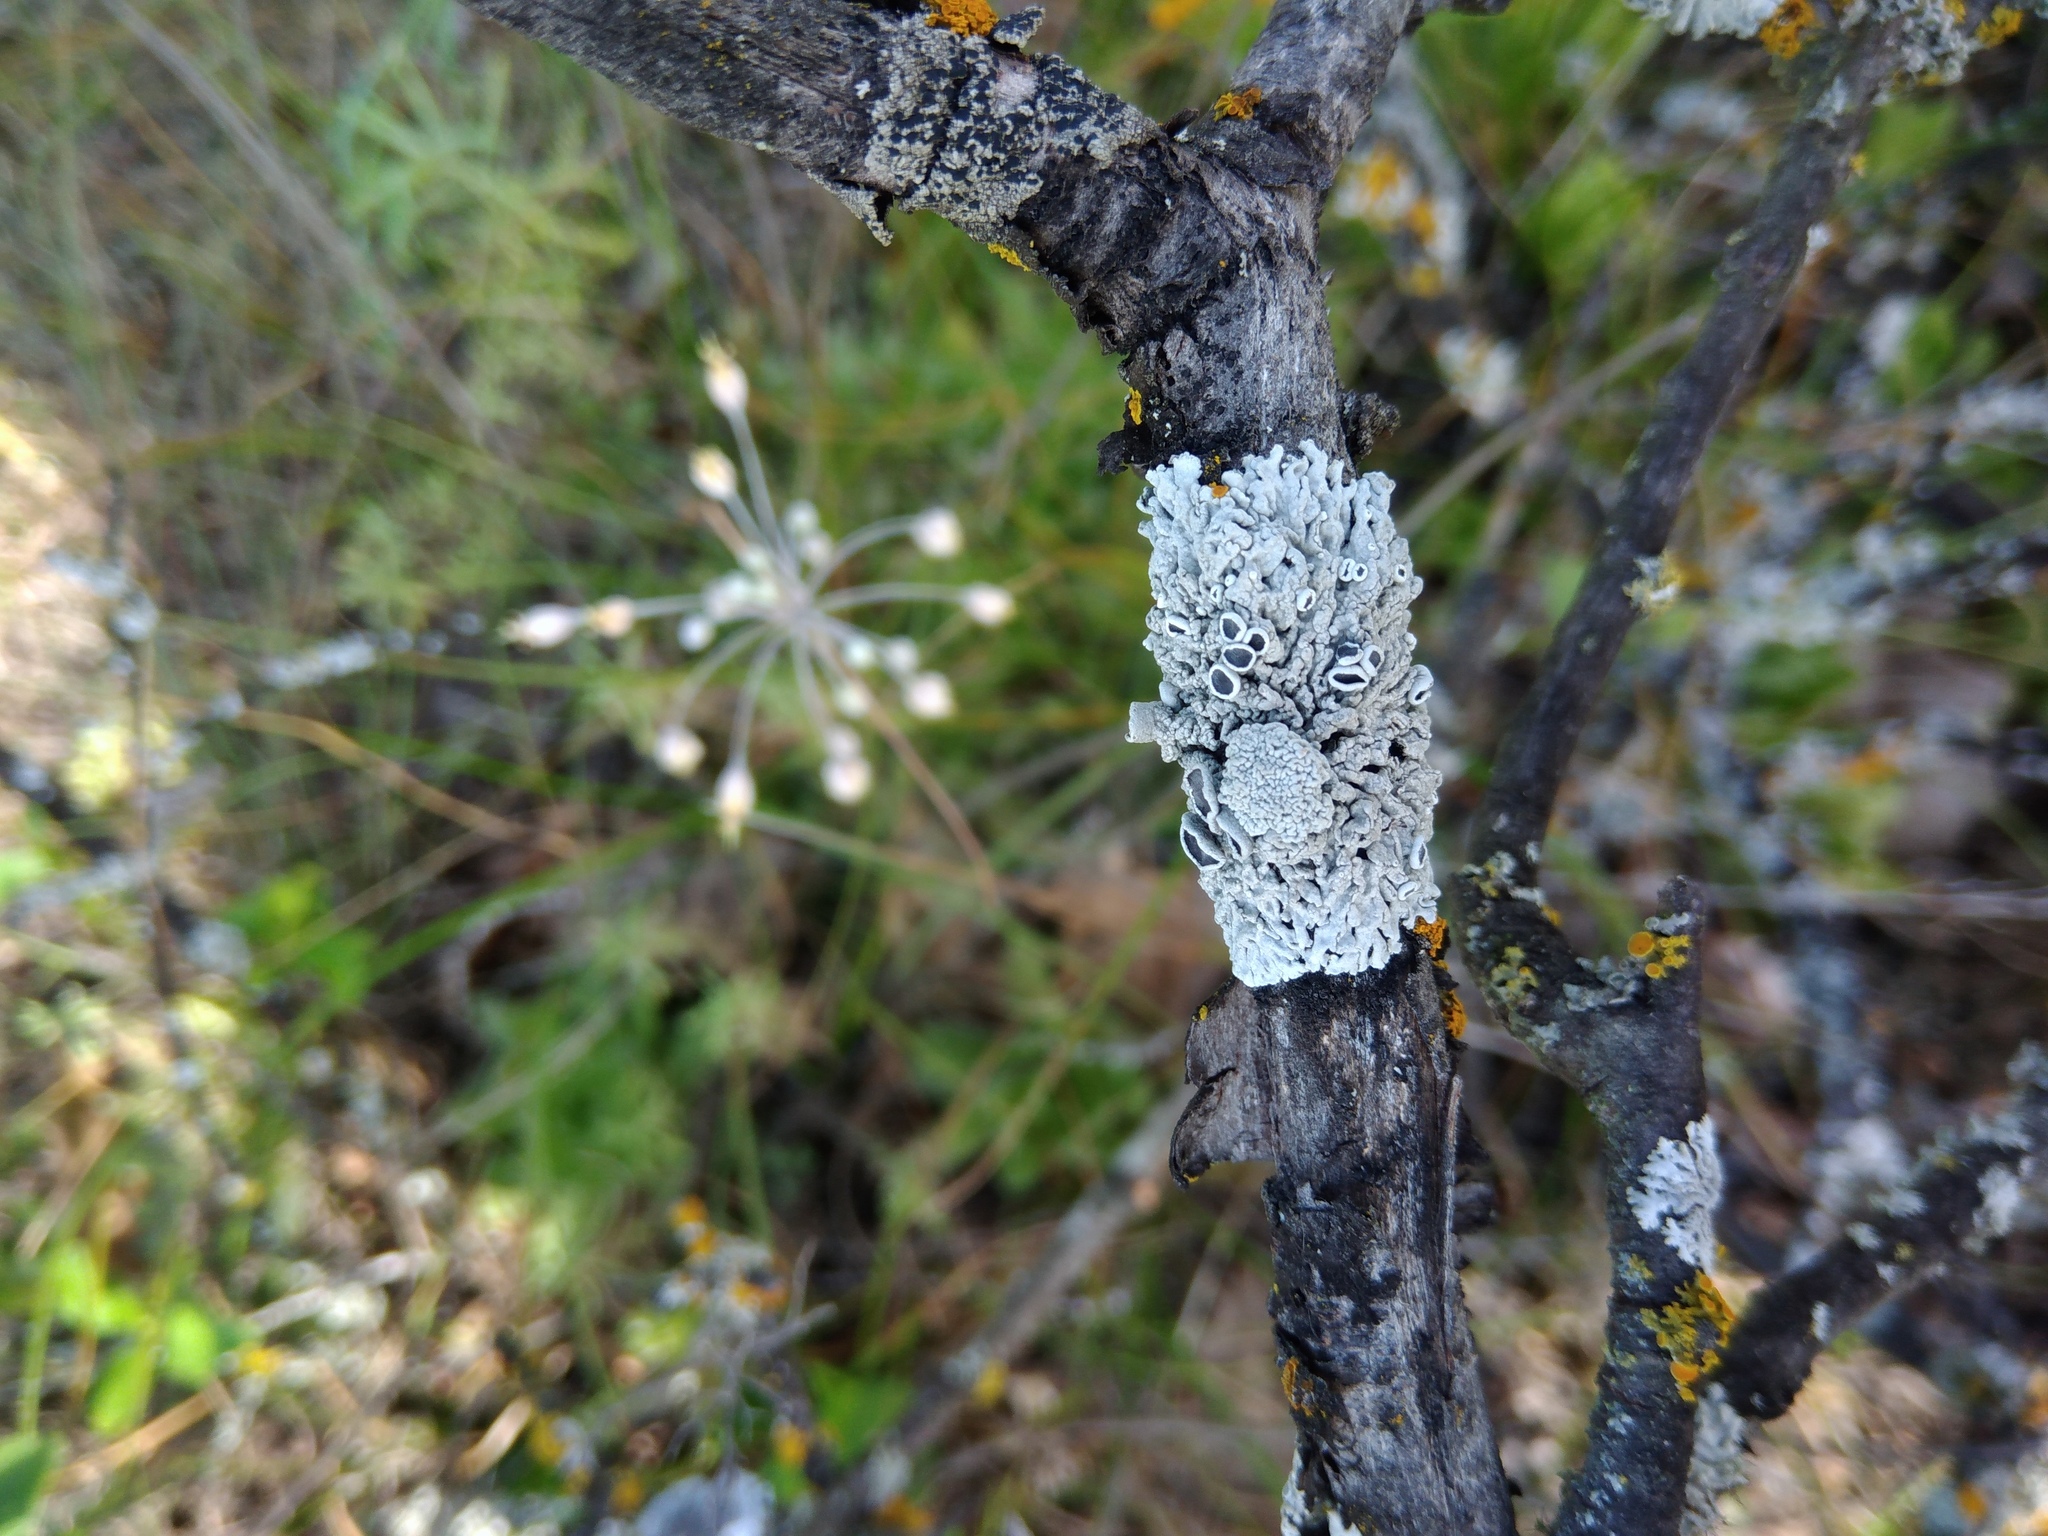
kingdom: Fungi
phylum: Ascomycota
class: Lecanoromycetes
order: Caliciales
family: Physciaceae
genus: Physcia
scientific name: Physcia stellaris
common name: Star rosette lichen
